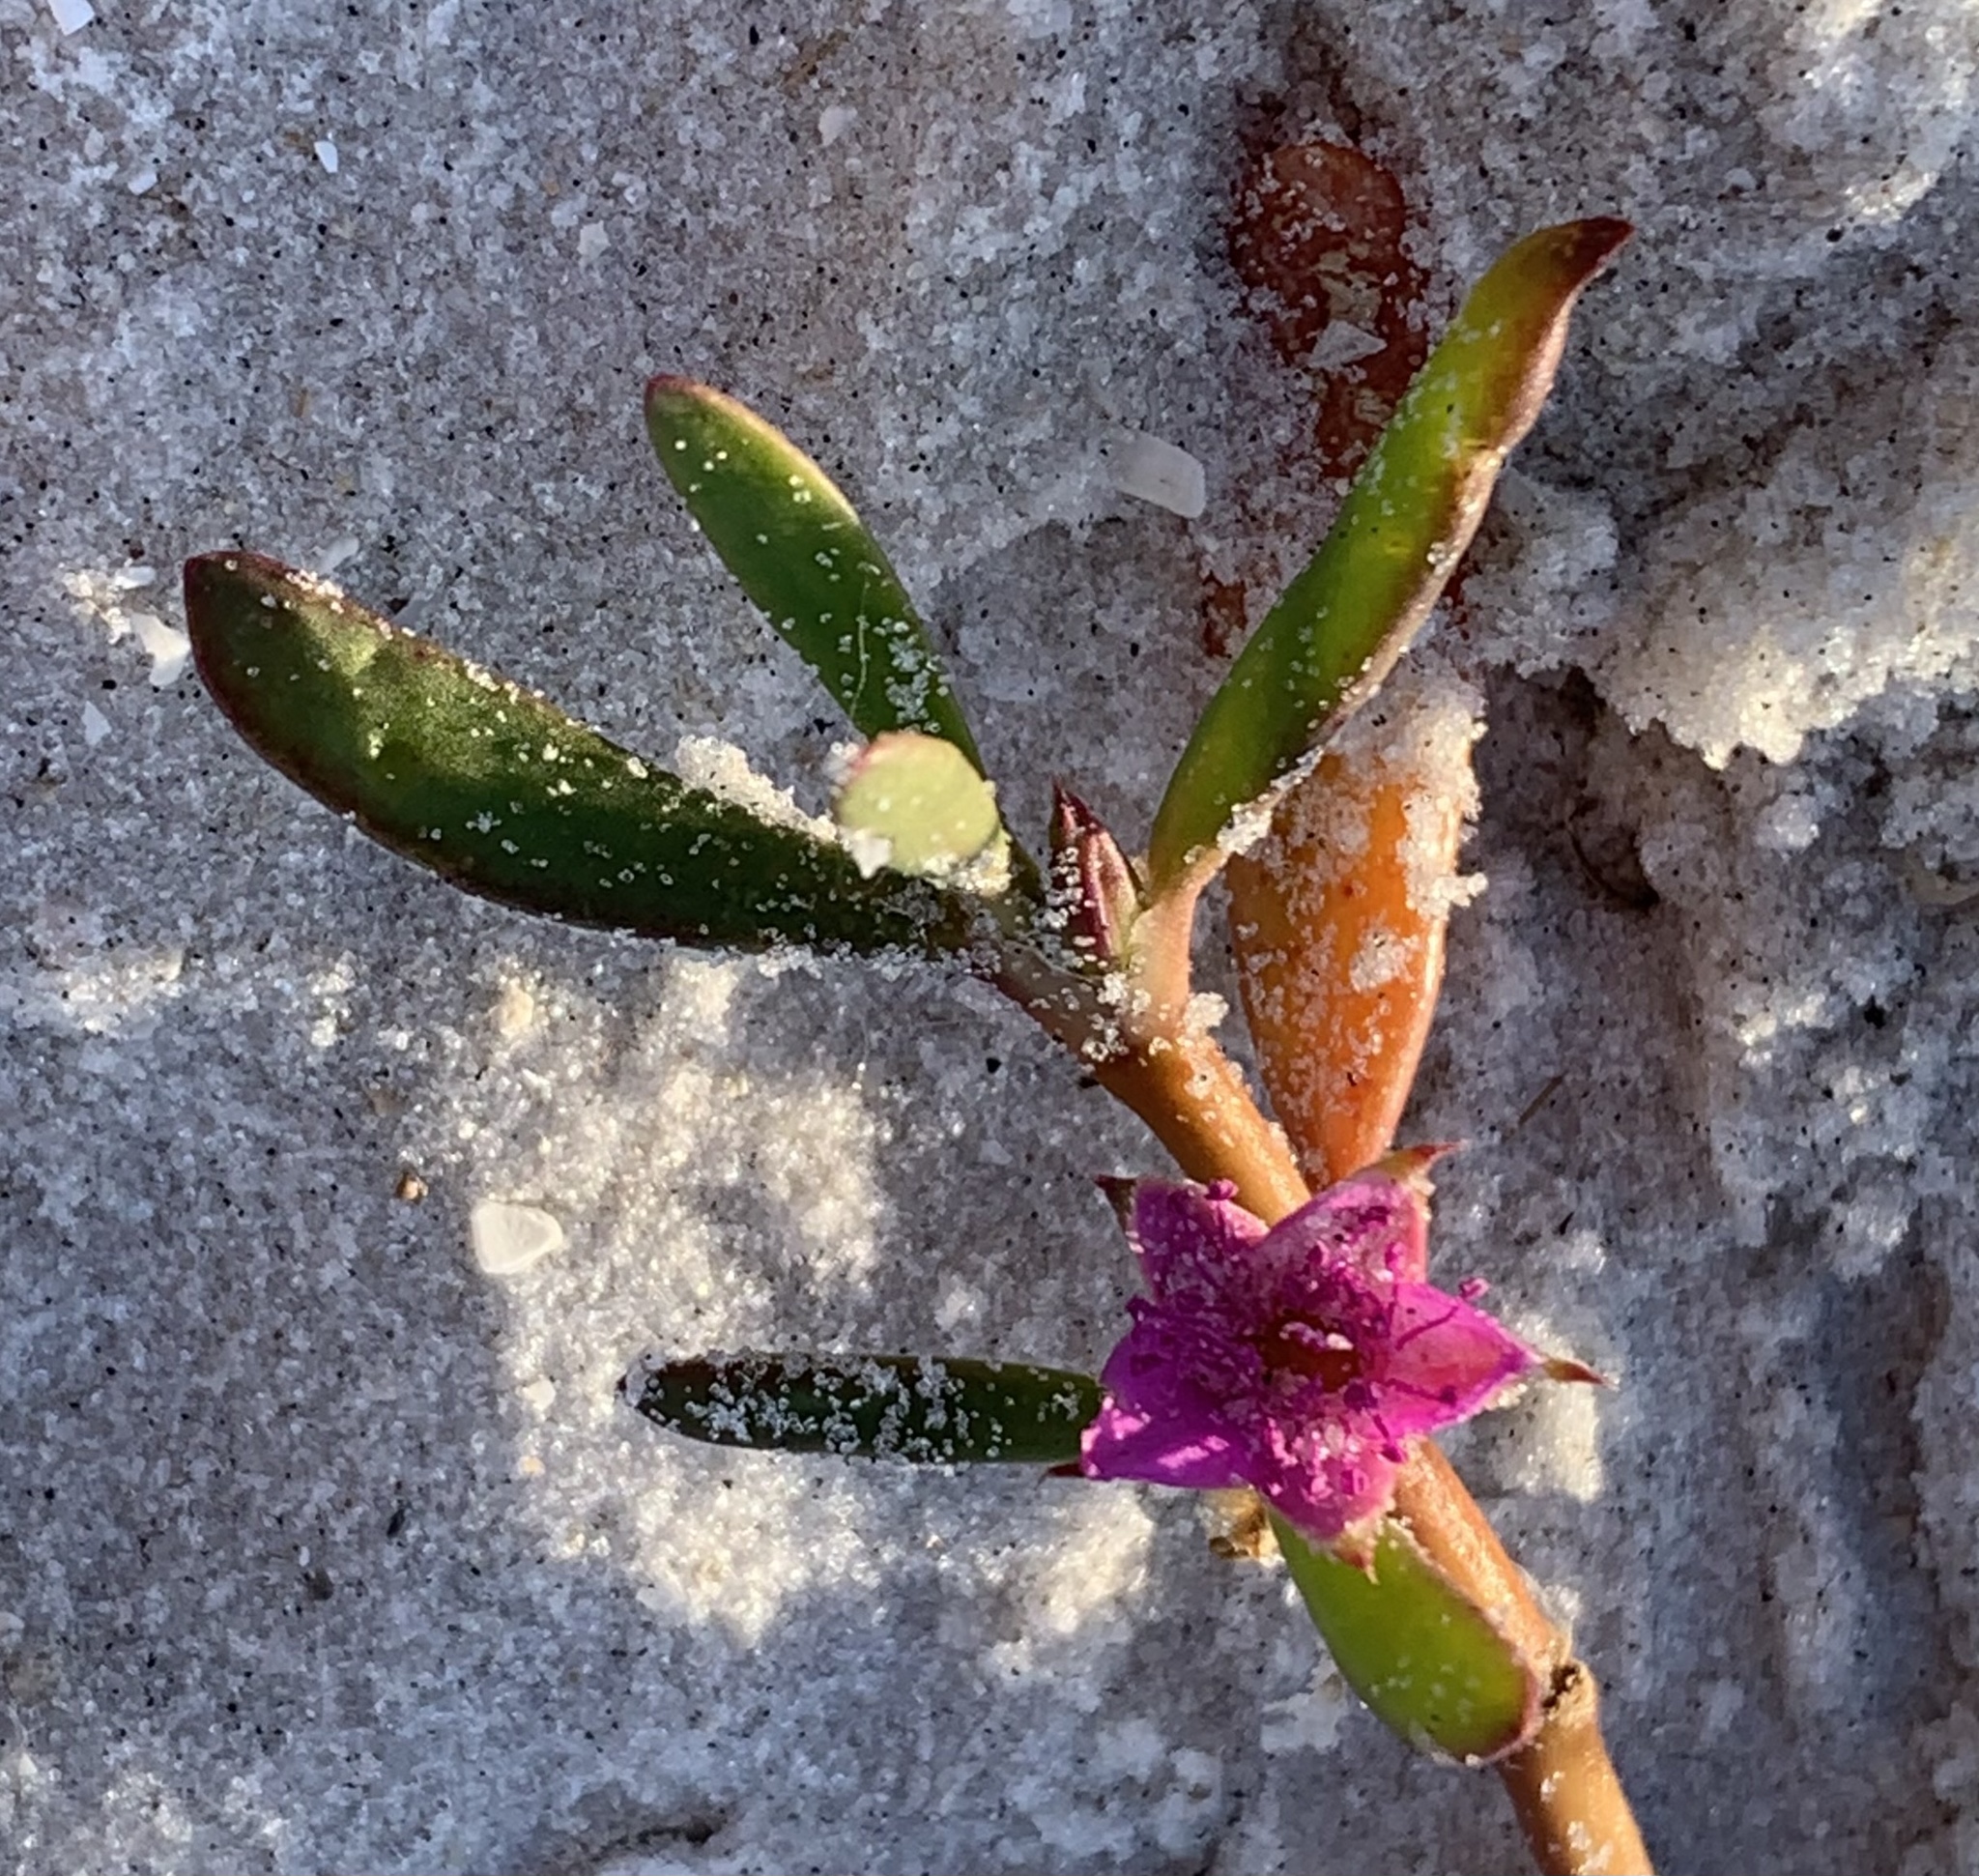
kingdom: Plantae
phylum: Tracheophyta
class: Magnoliopsida
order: Caryophyllales
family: Aizoaceae
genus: Sesuvium
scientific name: Sesuvium portulacastrum
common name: Sea-purslane
